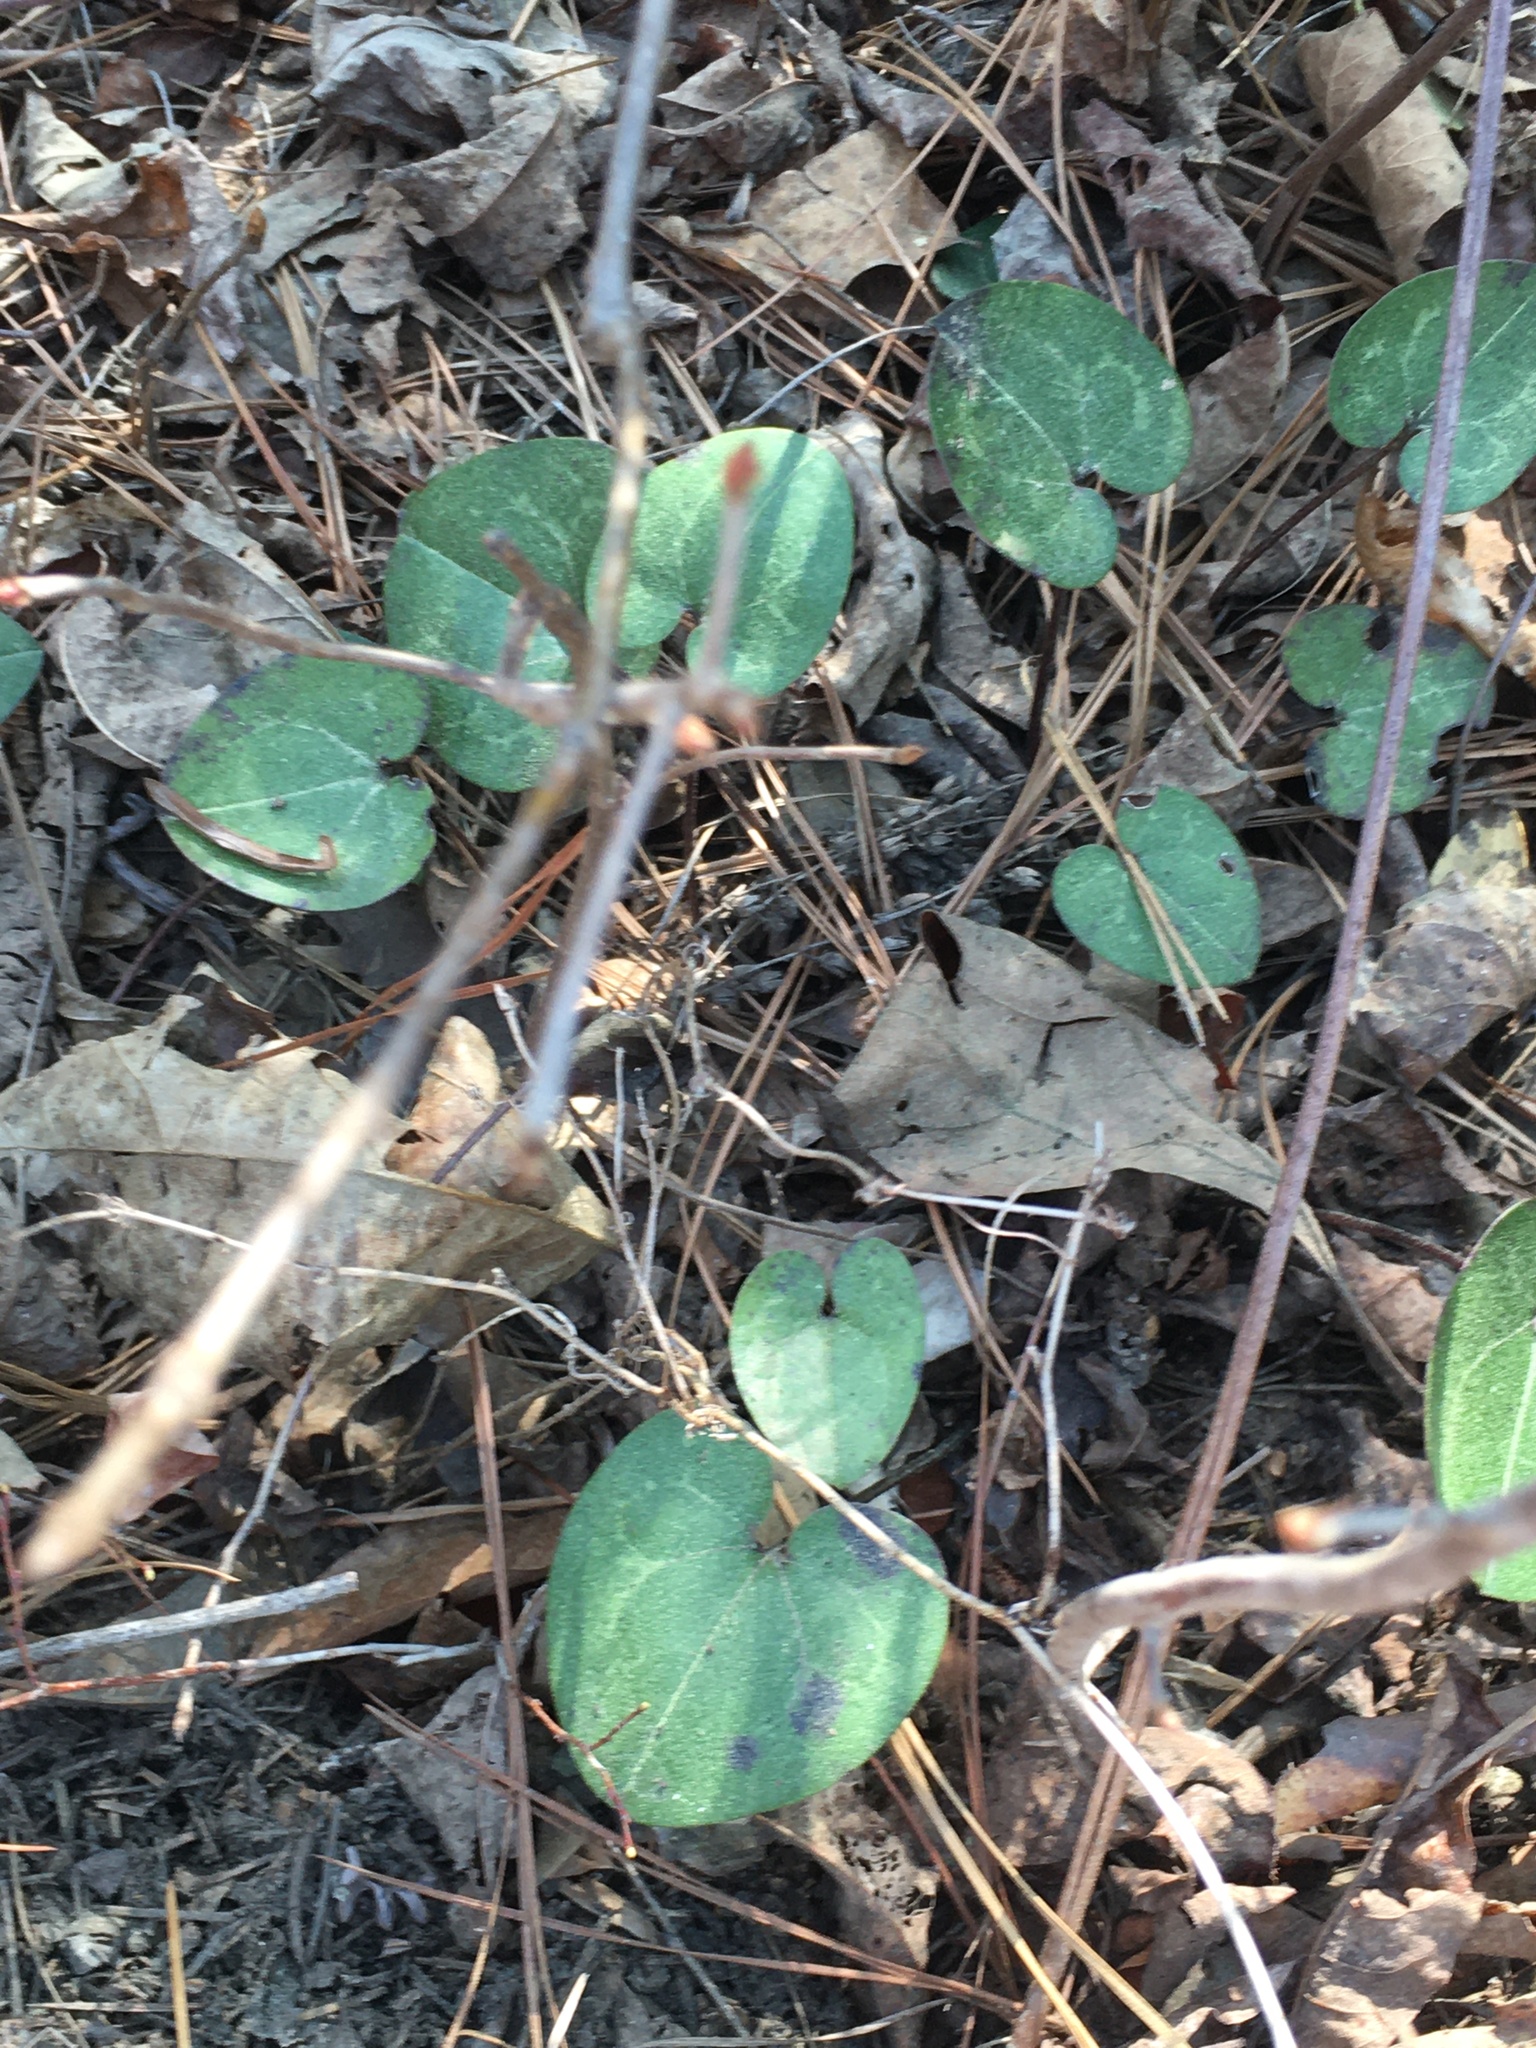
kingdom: Plantae
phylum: Tracheophyta
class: Magnoliopsida
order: Piperales
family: Aristolochiaceae
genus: Hexastylis
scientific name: Hexastylis sorriei
